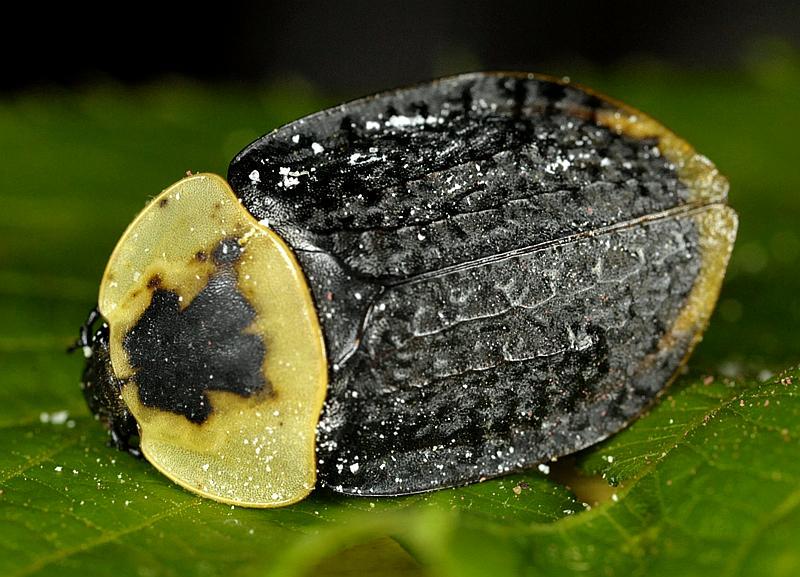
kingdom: Animalia
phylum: Arthropoda
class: Insecta
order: Coleoptera
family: Staphylinidae
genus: Necrophila
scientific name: Necrophila americana
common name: American carrion beetle
